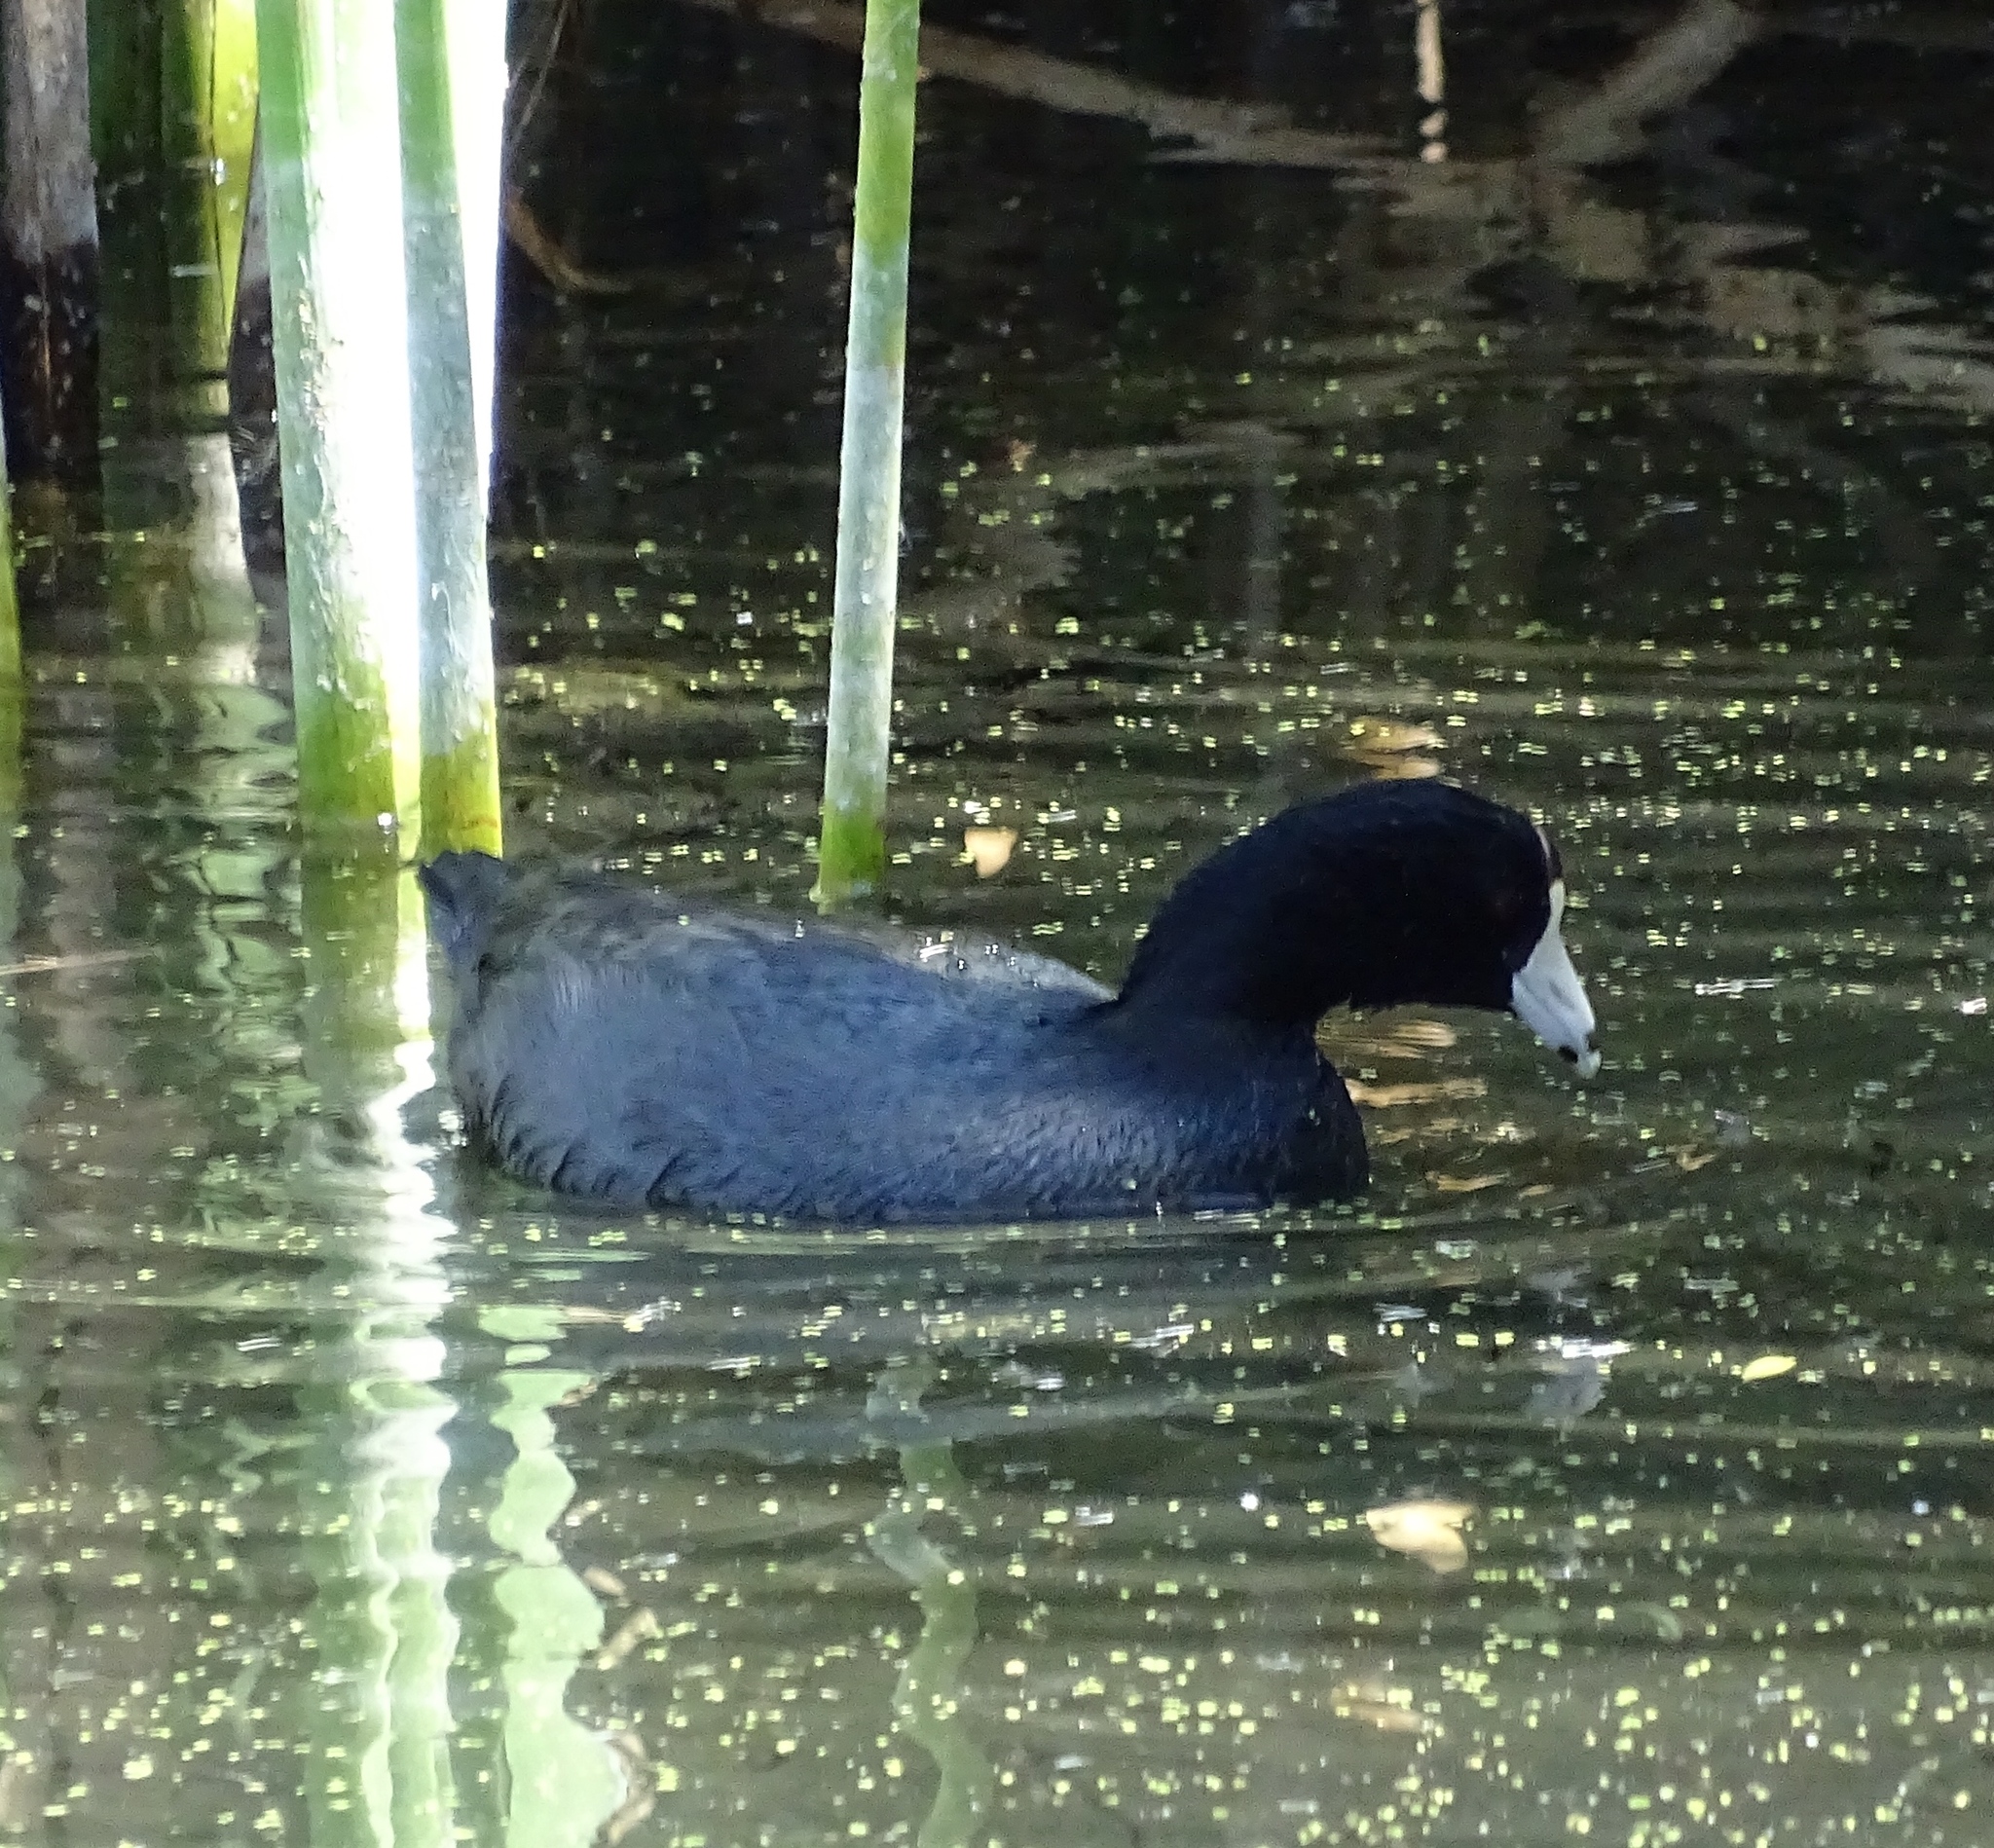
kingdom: Animalia
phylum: Chordata
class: Aves
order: Gruiformes
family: Rallidae
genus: Fulica
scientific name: Fulica americana
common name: American coot
